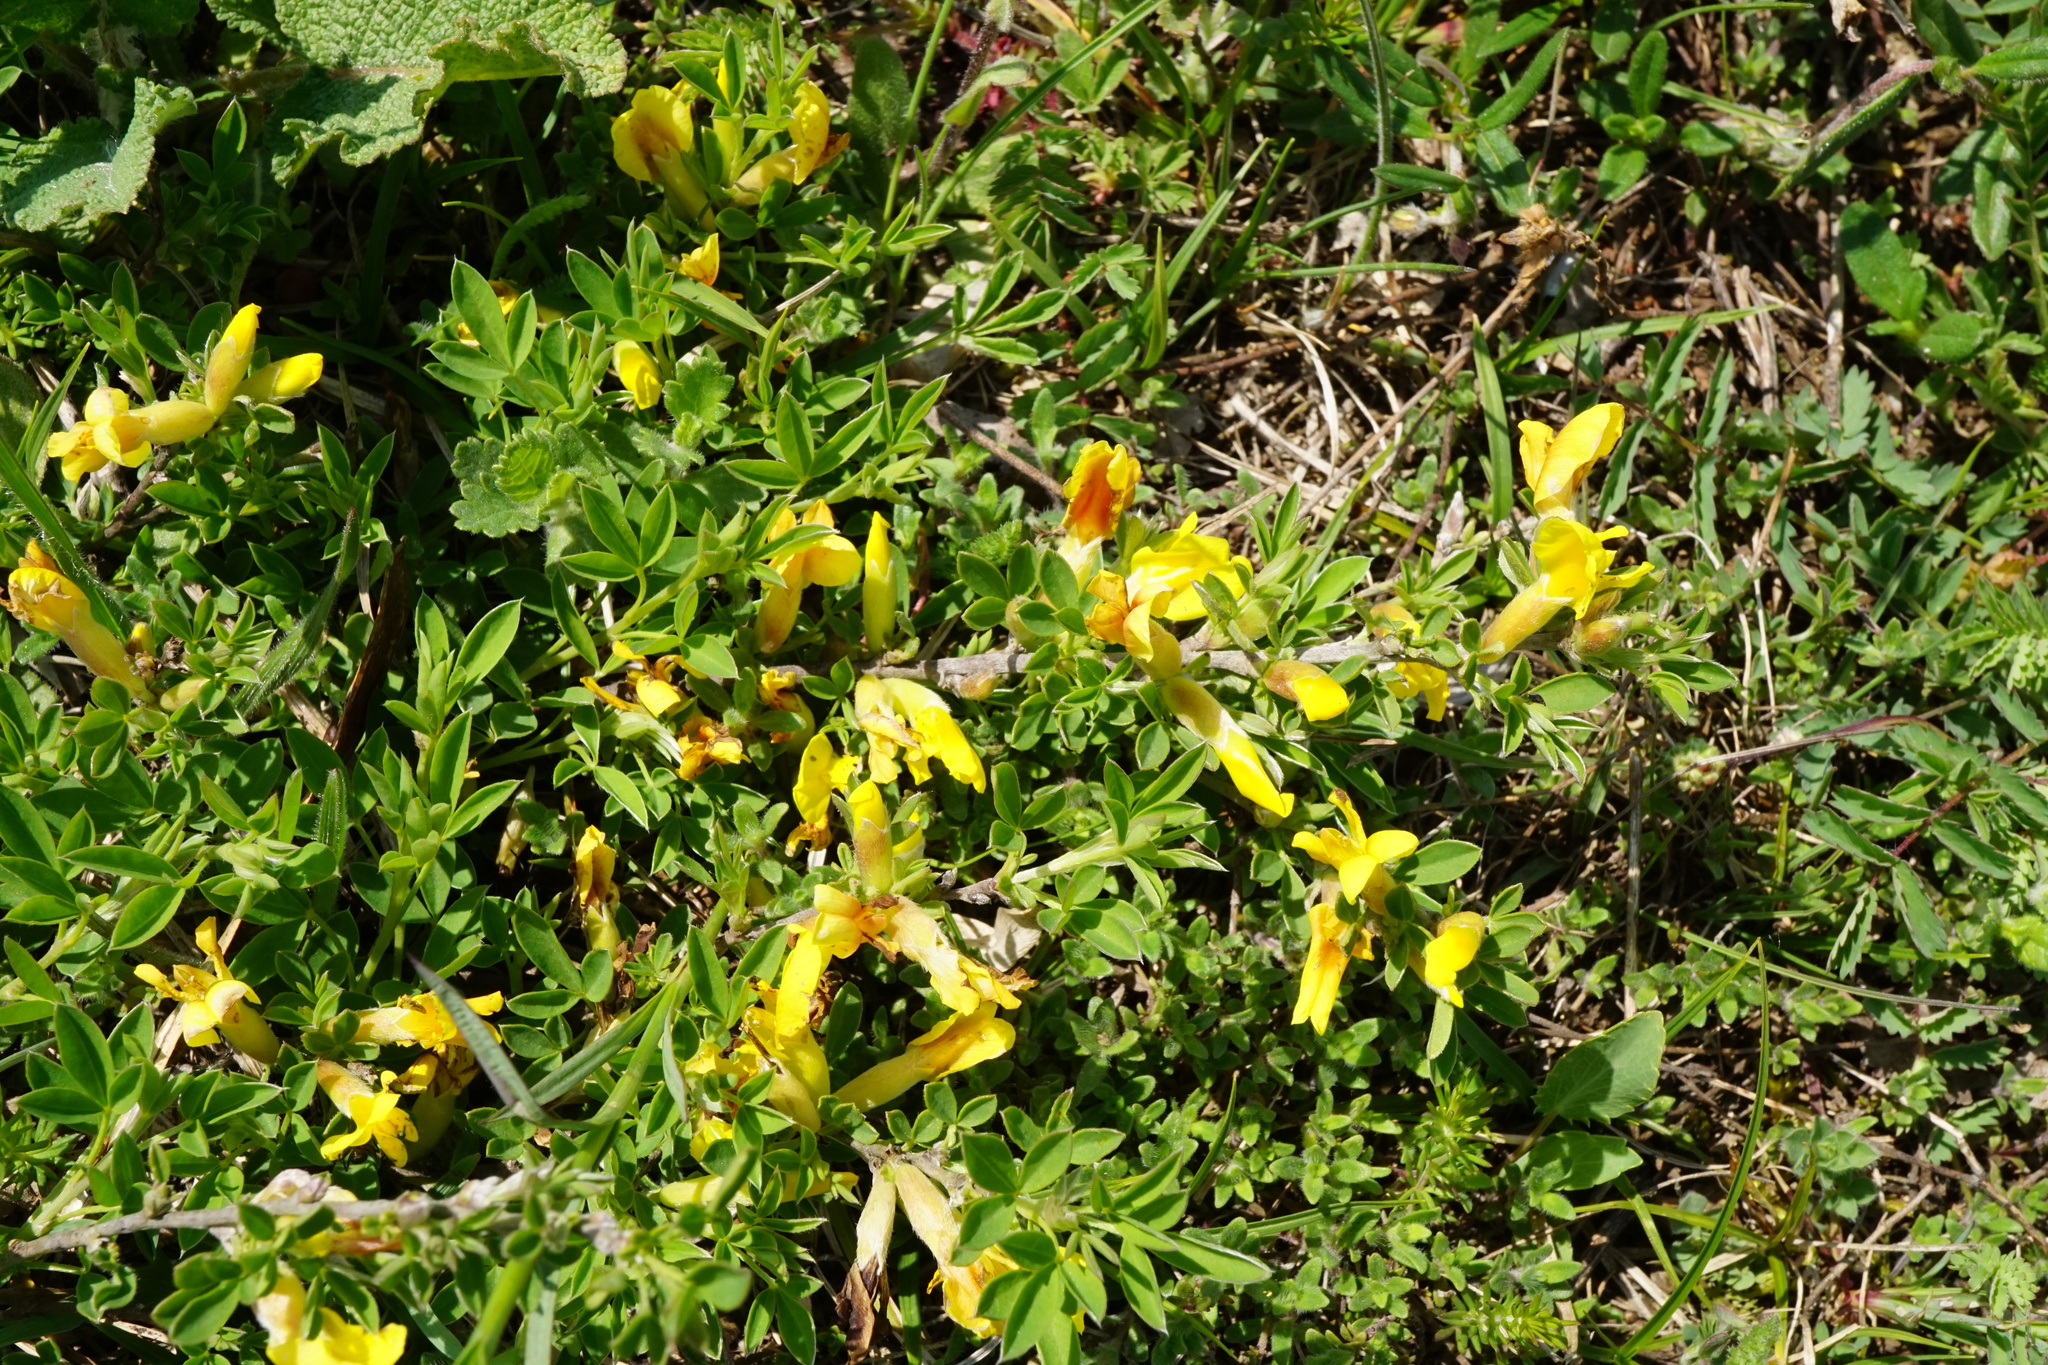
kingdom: Plantae
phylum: Tracheophyta
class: Magnoliopsida
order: Fabales
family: Fabaceae
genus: Chamaecytisus
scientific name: Chamaecytisus ratisbonensis
